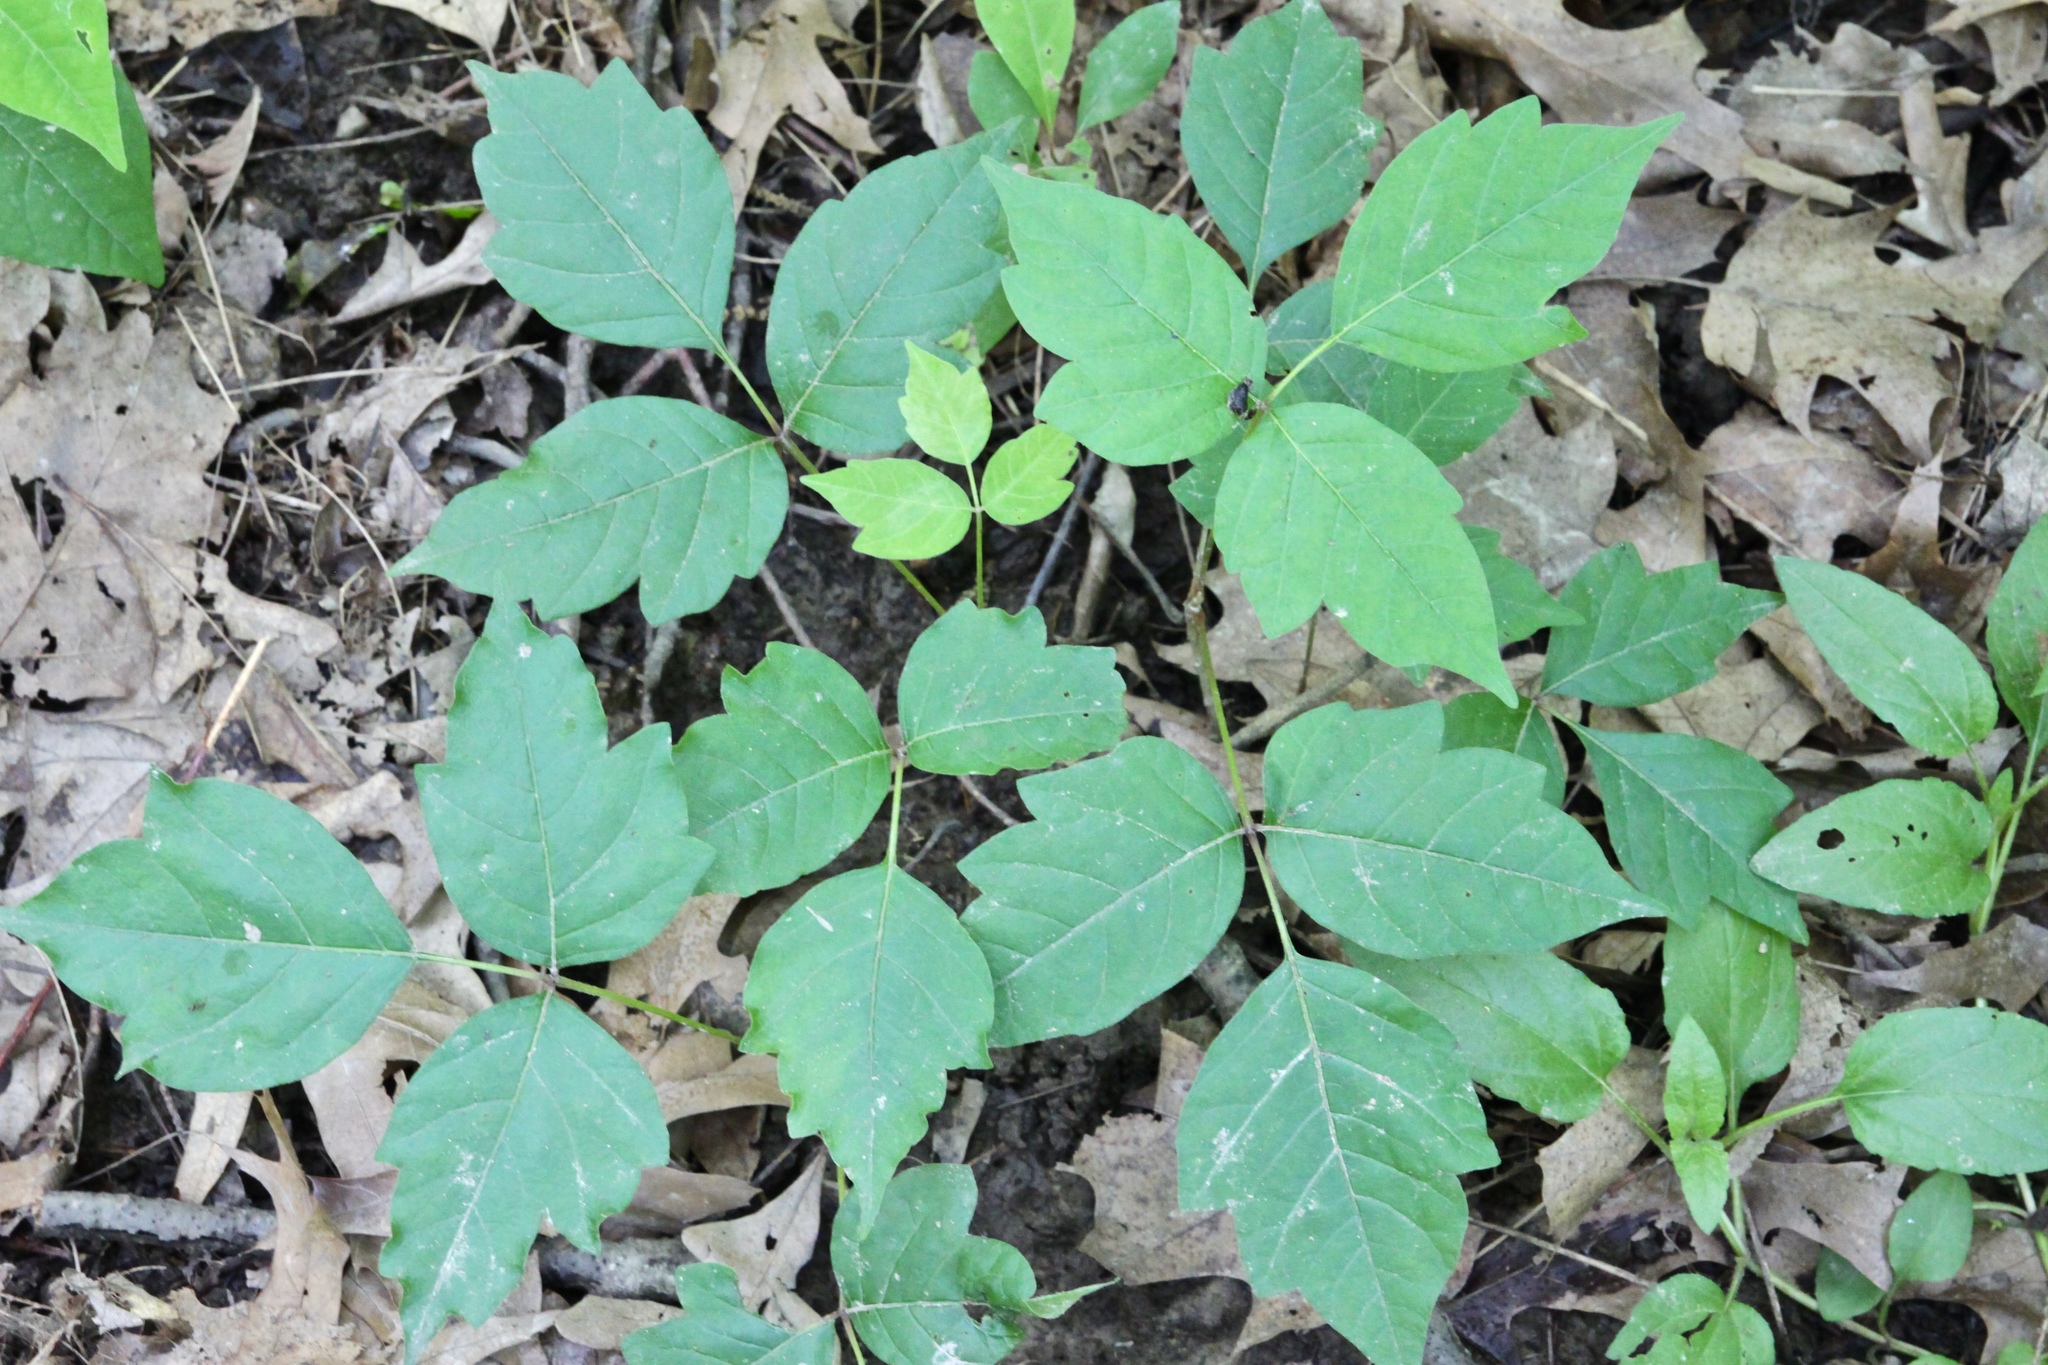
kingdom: Plantae
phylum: Tracheophyta
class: Magnoliopsida
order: Sapindales
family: Anacardiaceae
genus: Toxicodendron
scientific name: Toxicodendron radicans
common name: Poison ivy
